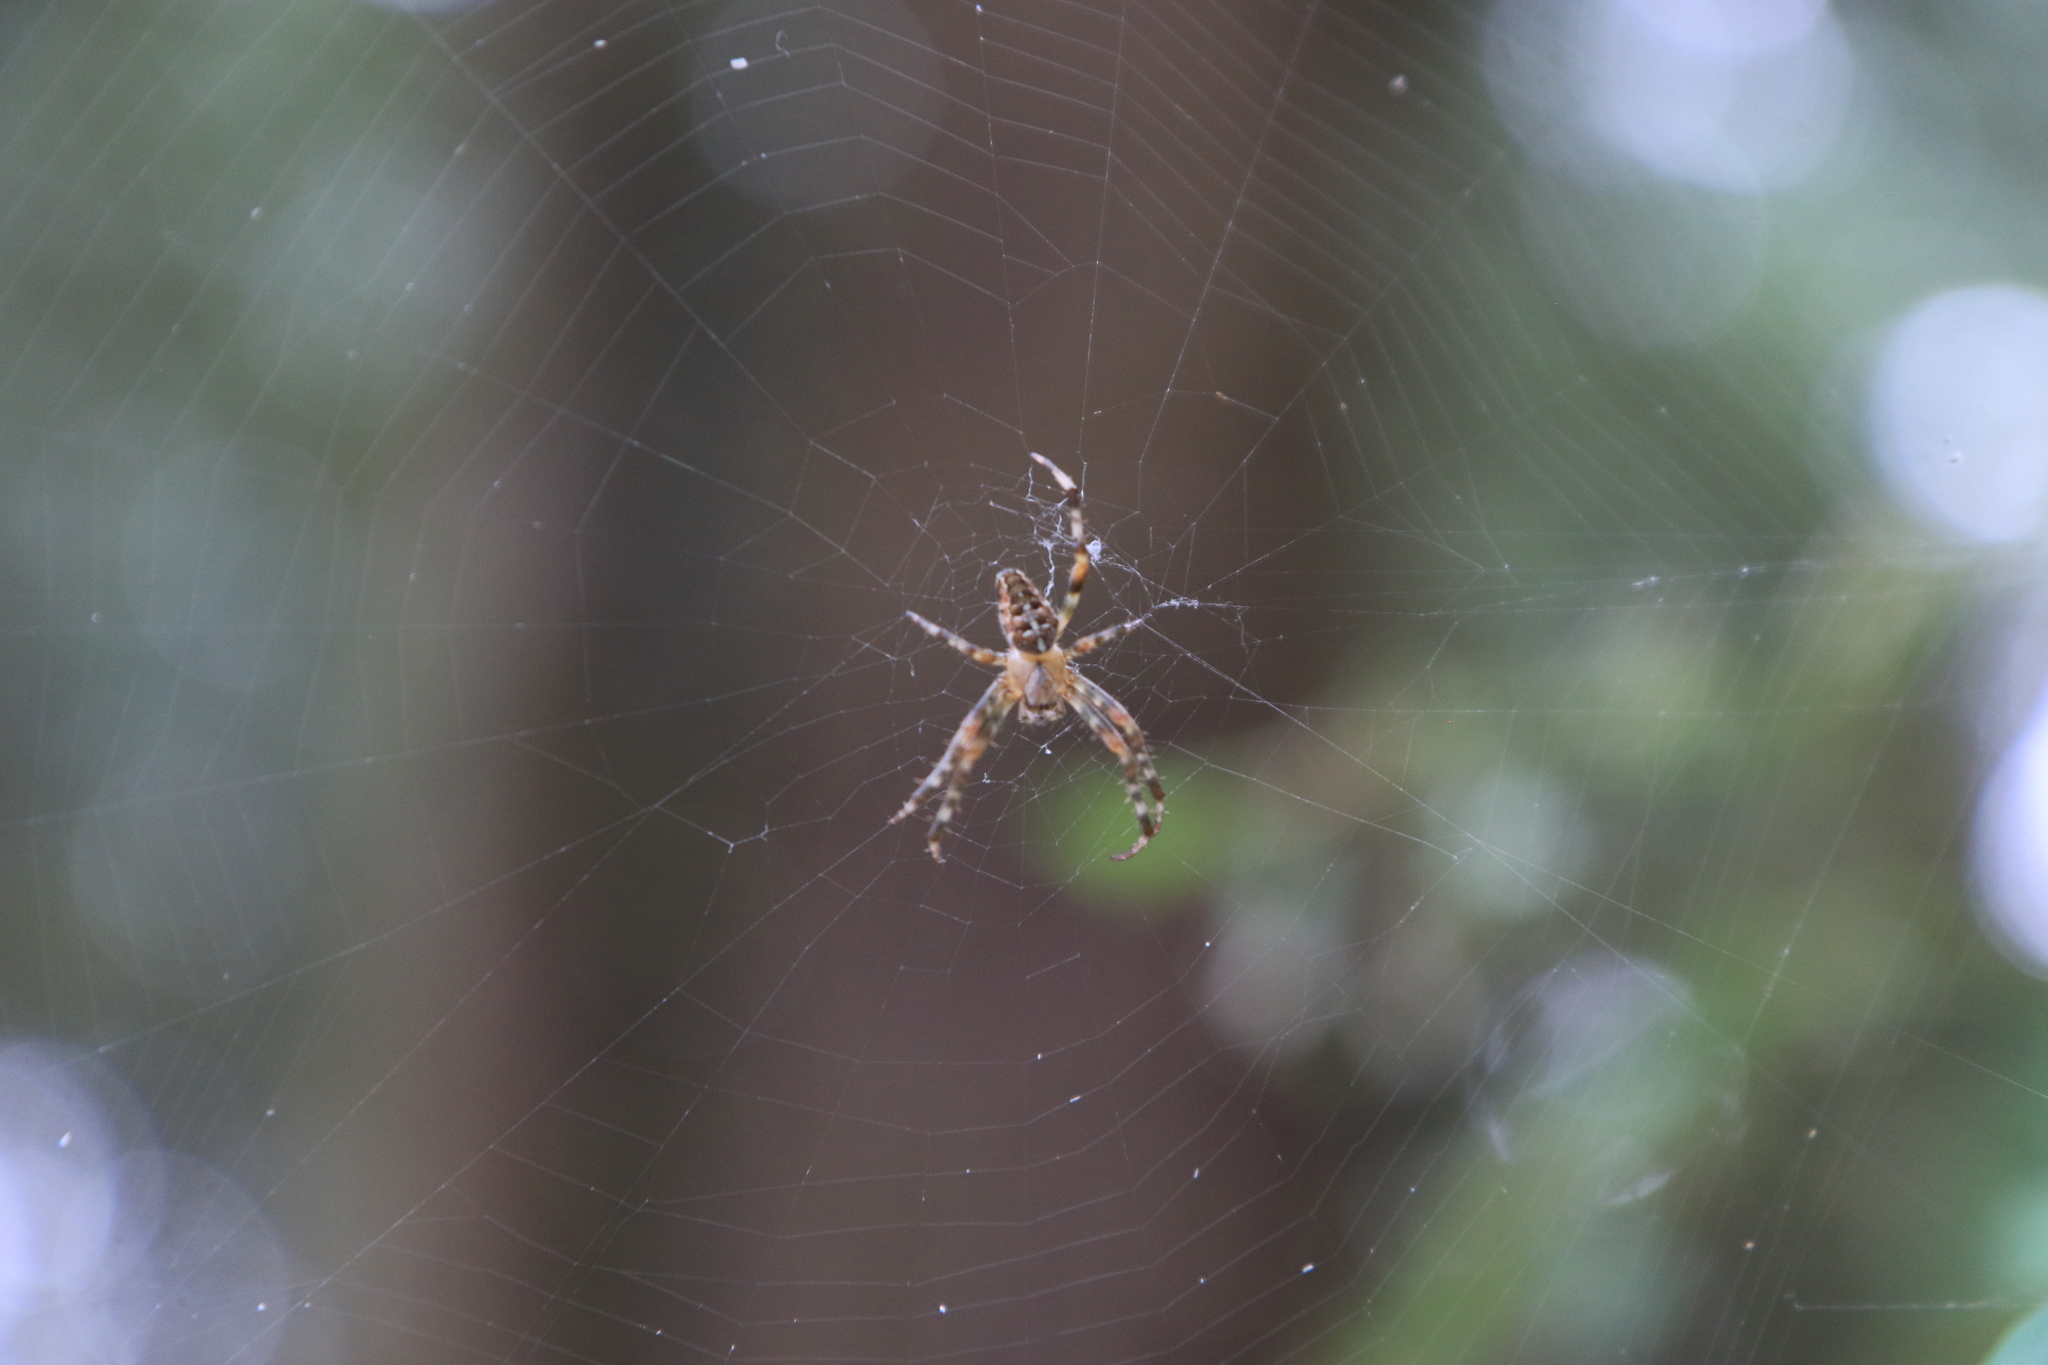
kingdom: Animalia
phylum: Arthropoda
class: Arachnida
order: Araneae
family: Araneidae
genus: Araneus
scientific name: Araneus diadematus
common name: Cross orbweaver
